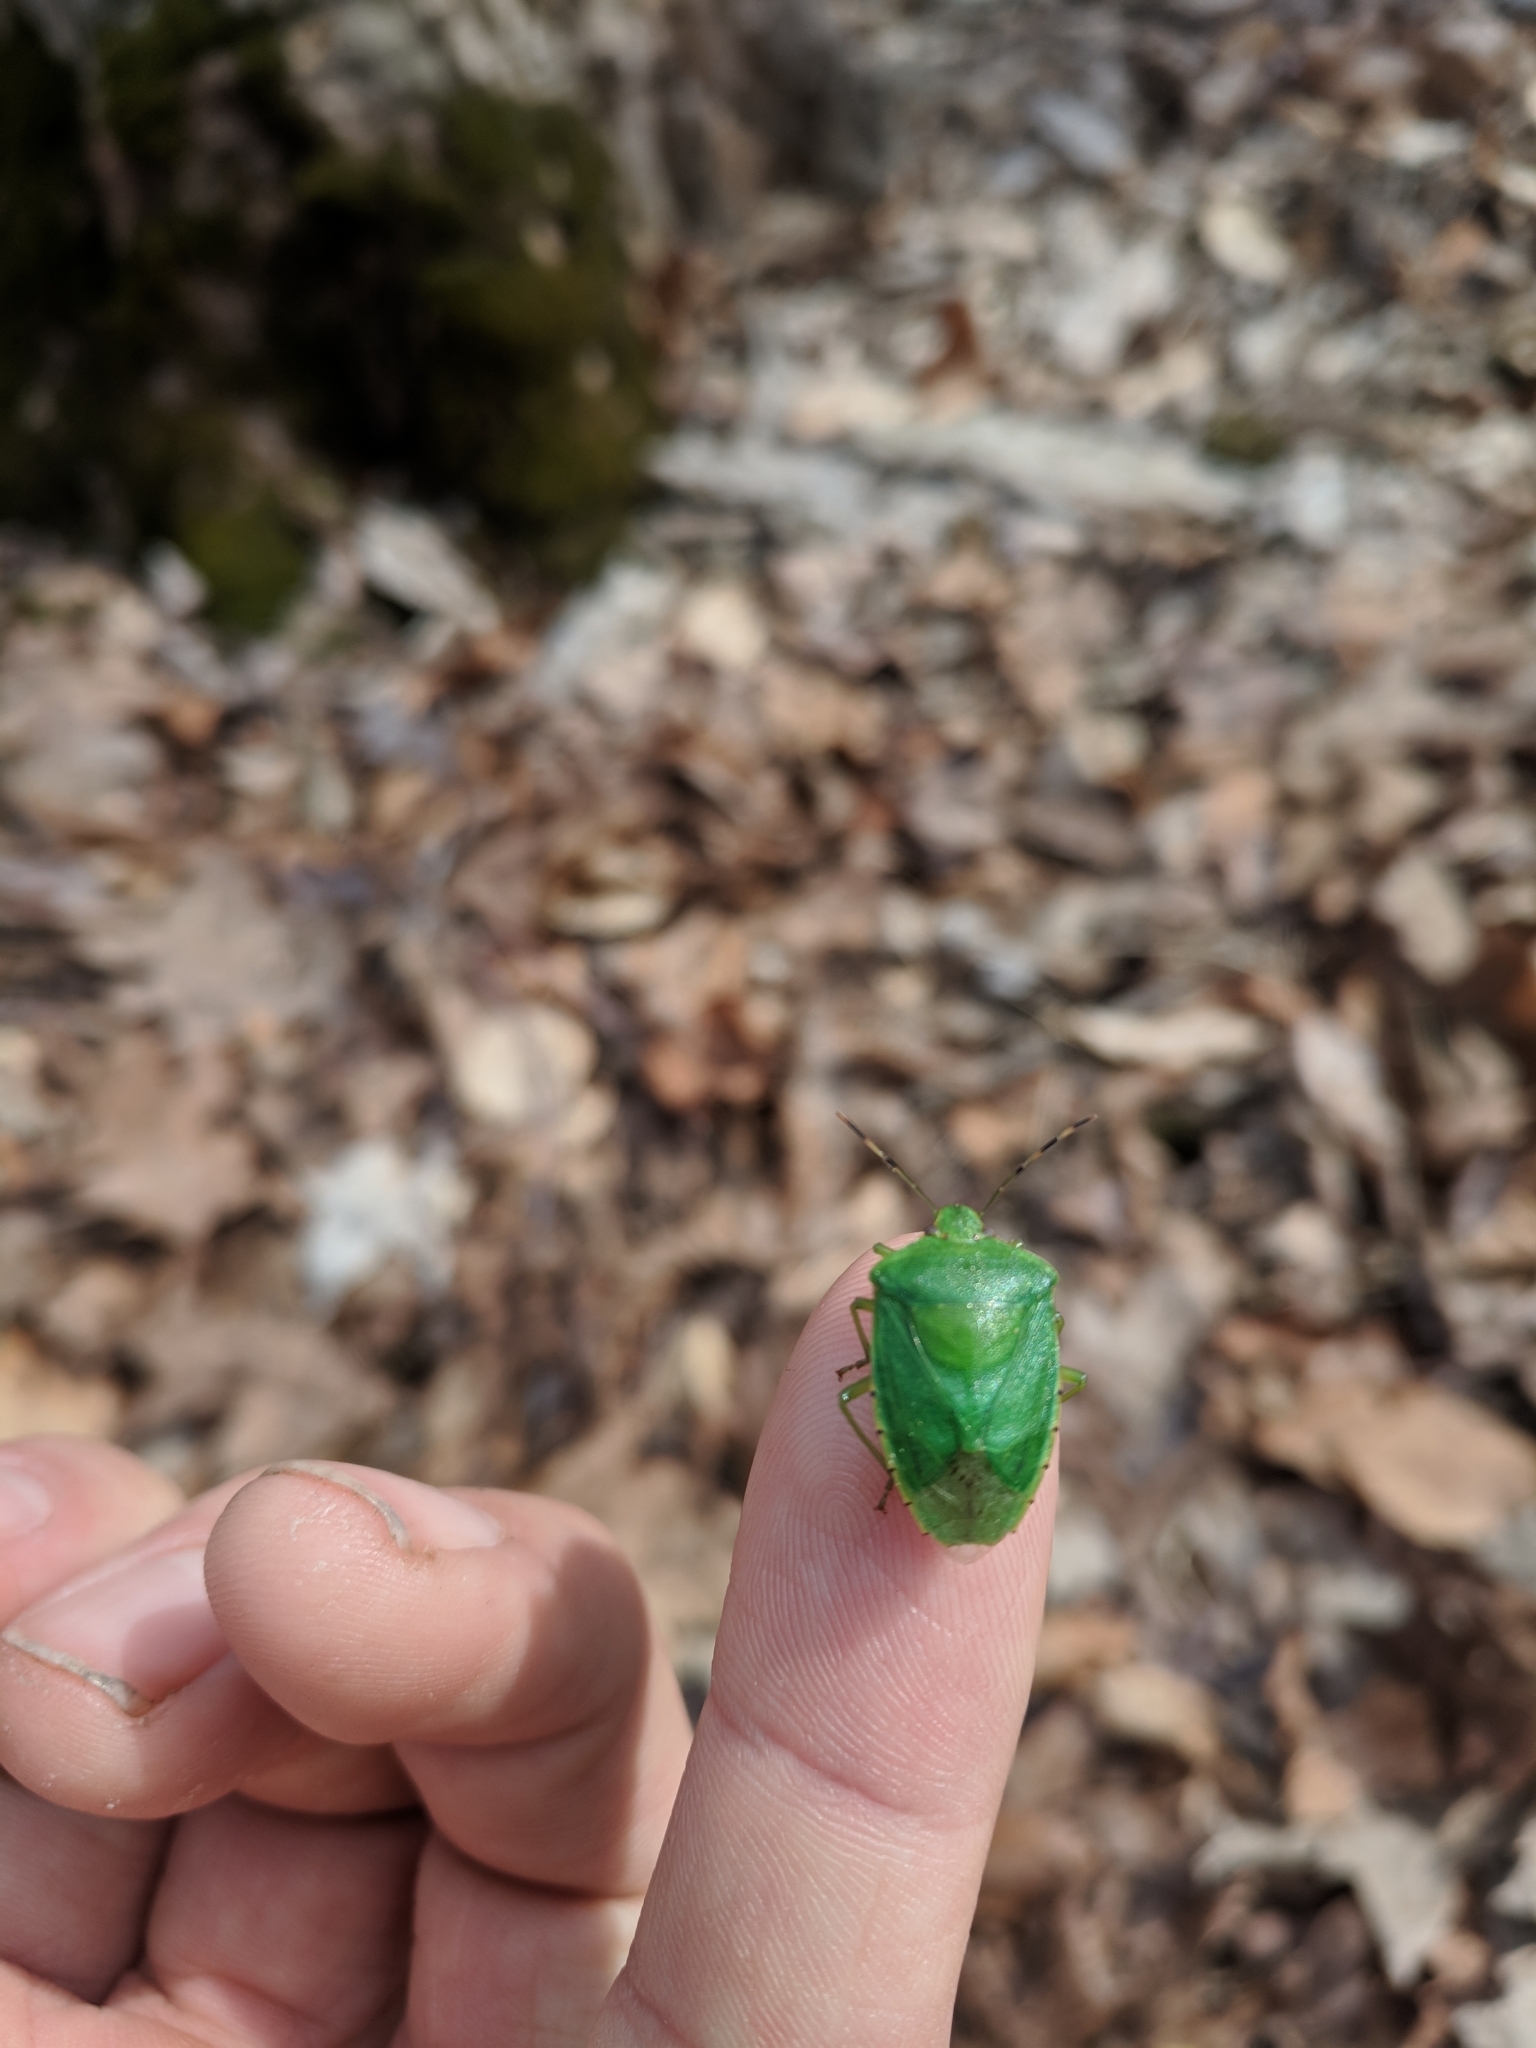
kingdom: Animalia
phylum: Arthropoda
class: Insecta
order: Hemiptera
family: Pentatomidae
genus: Chinavia
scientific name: Chinavia hilaris
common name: Green stink bug
